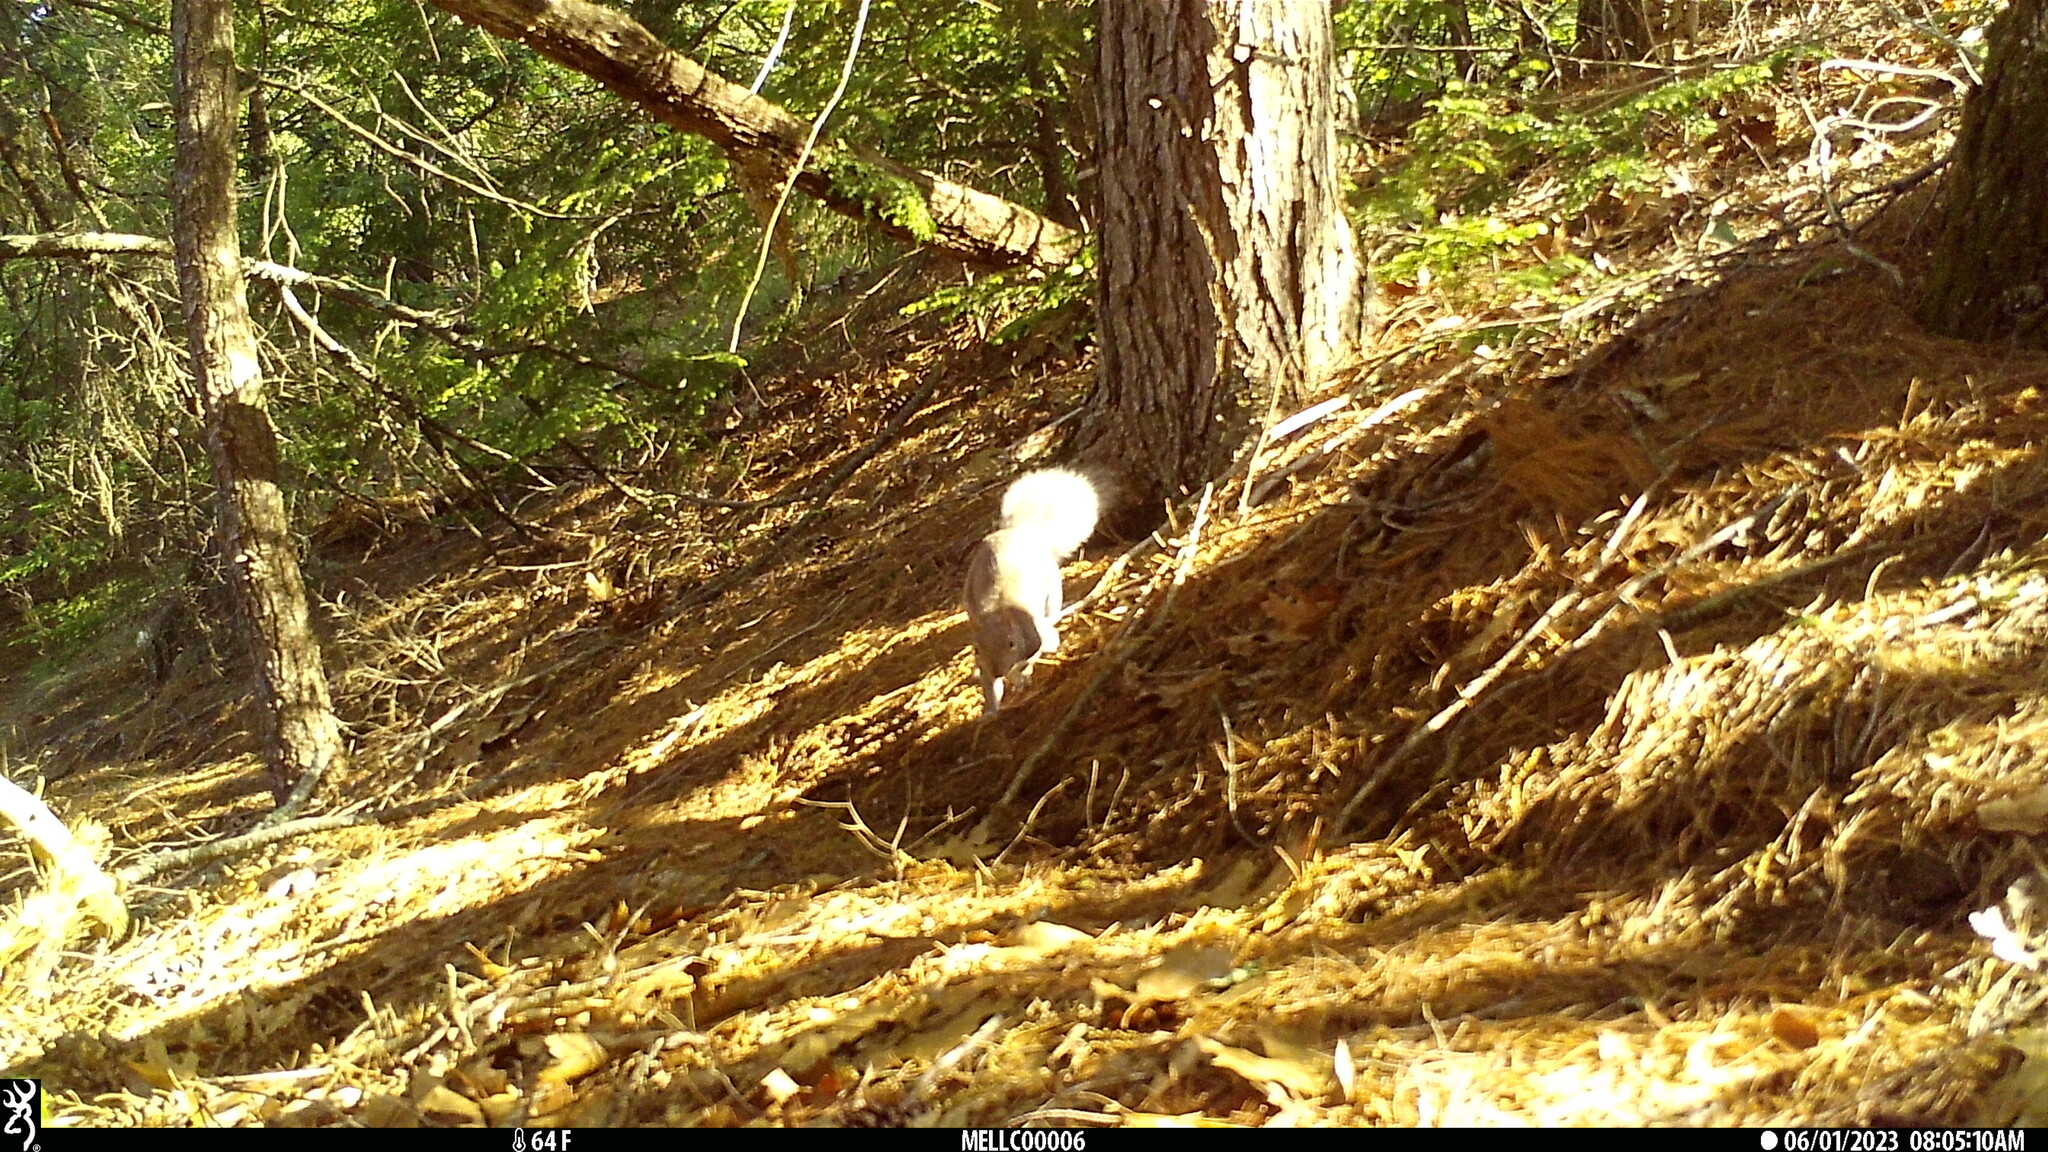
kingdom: Animalia
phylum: Chordata
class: Mammalia
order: Rodentia
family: Sciuridae
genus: Sciurus
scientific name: Sciurus carolinensis
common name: Eastern gray squirrel
